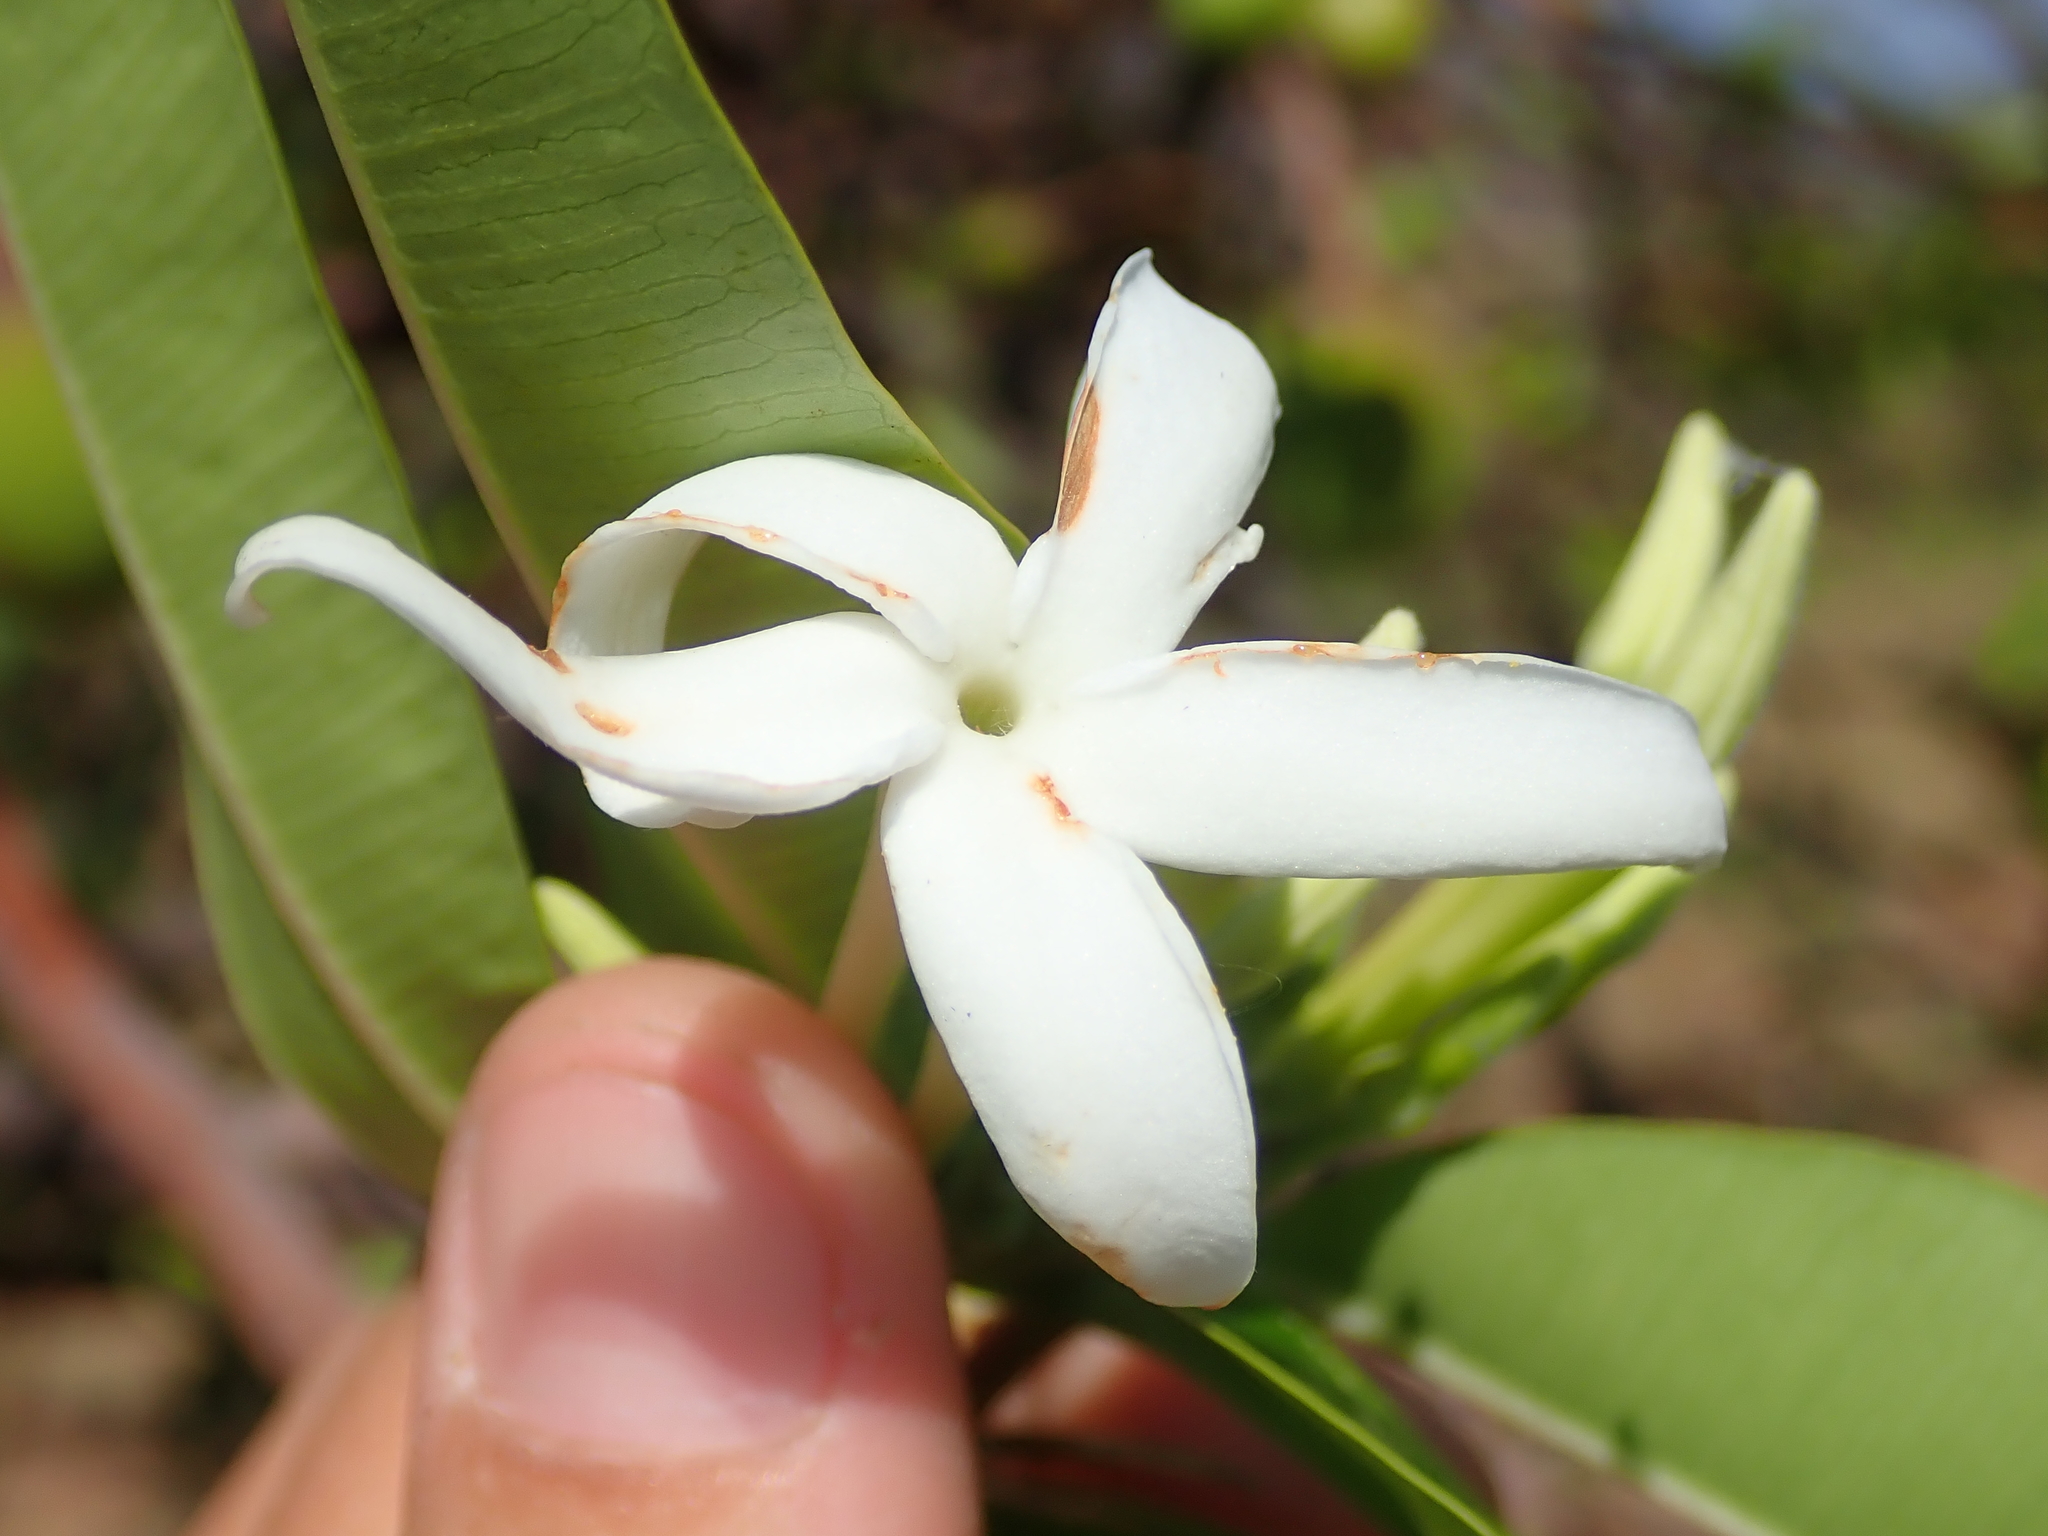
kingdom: Plantae
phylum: Tracheophyta
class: Magnoliopsida
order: Gentianales
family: Apocynaceae
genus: Hancornia
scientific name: Hancornia speciosa
